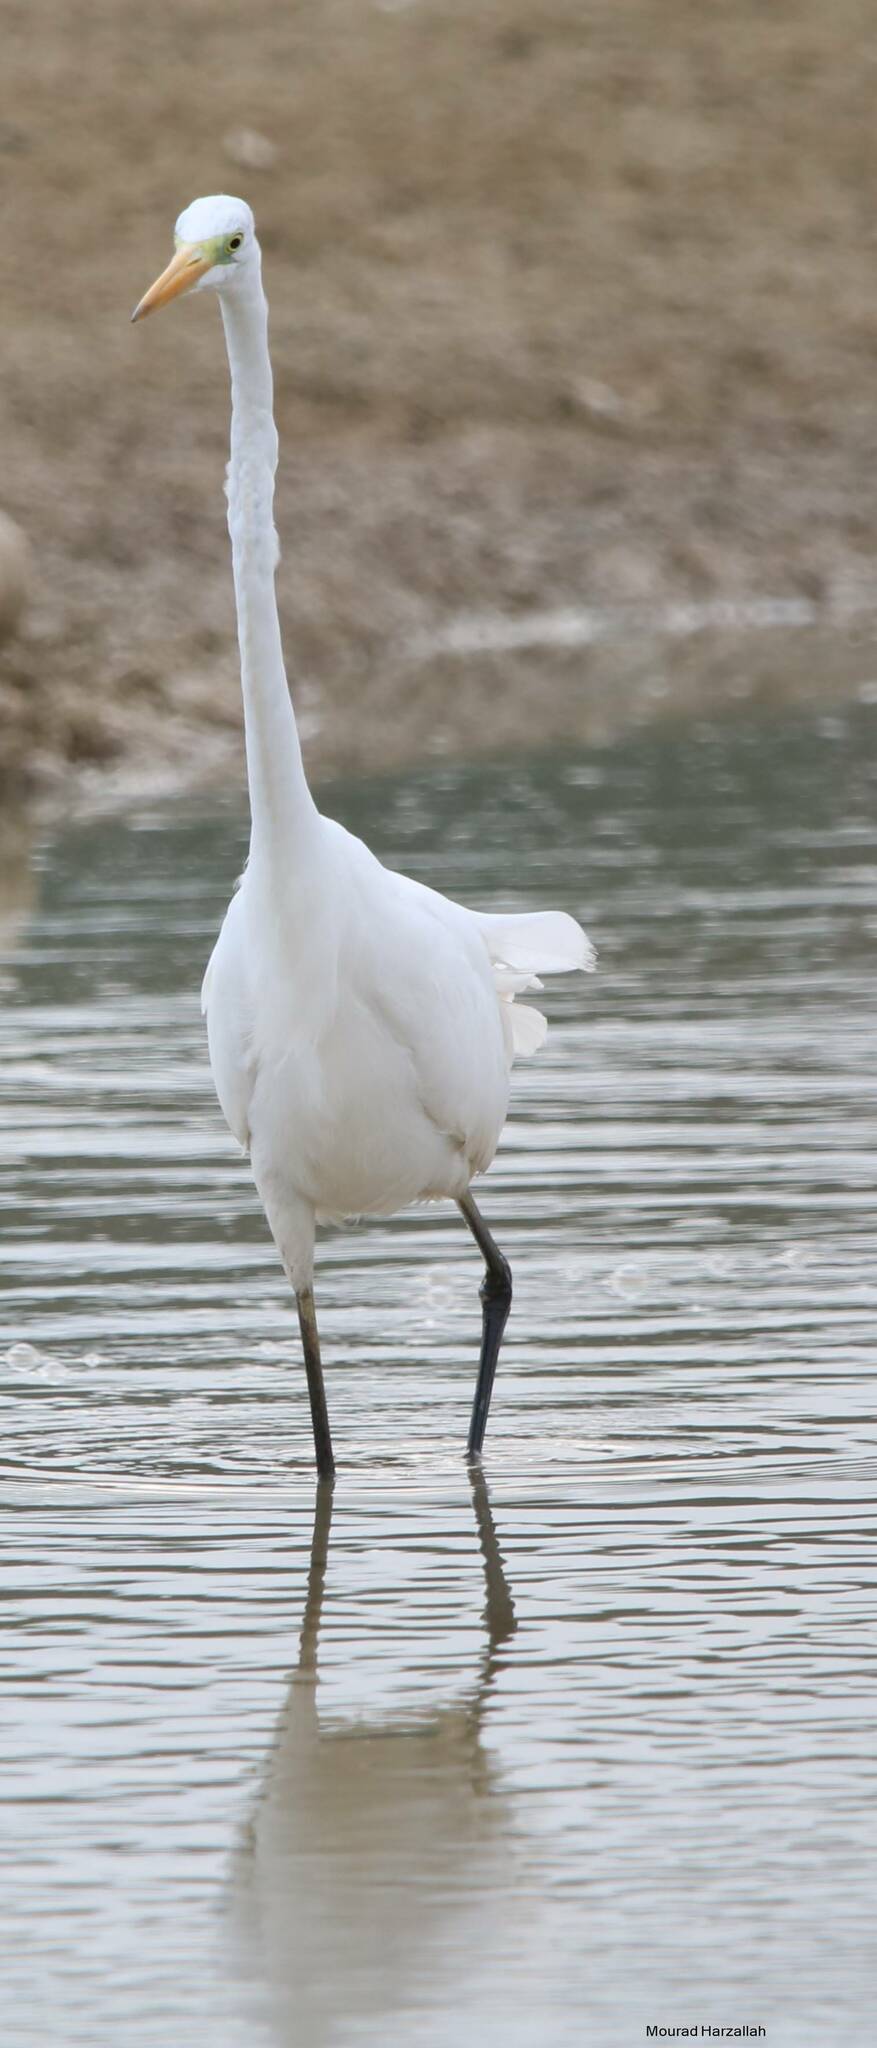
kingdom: Animalia
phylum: Chordata
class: Aves
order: Pelecaniformes
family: Ardeidae
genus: Ardea
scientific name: Ardea alba
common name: Great egret
